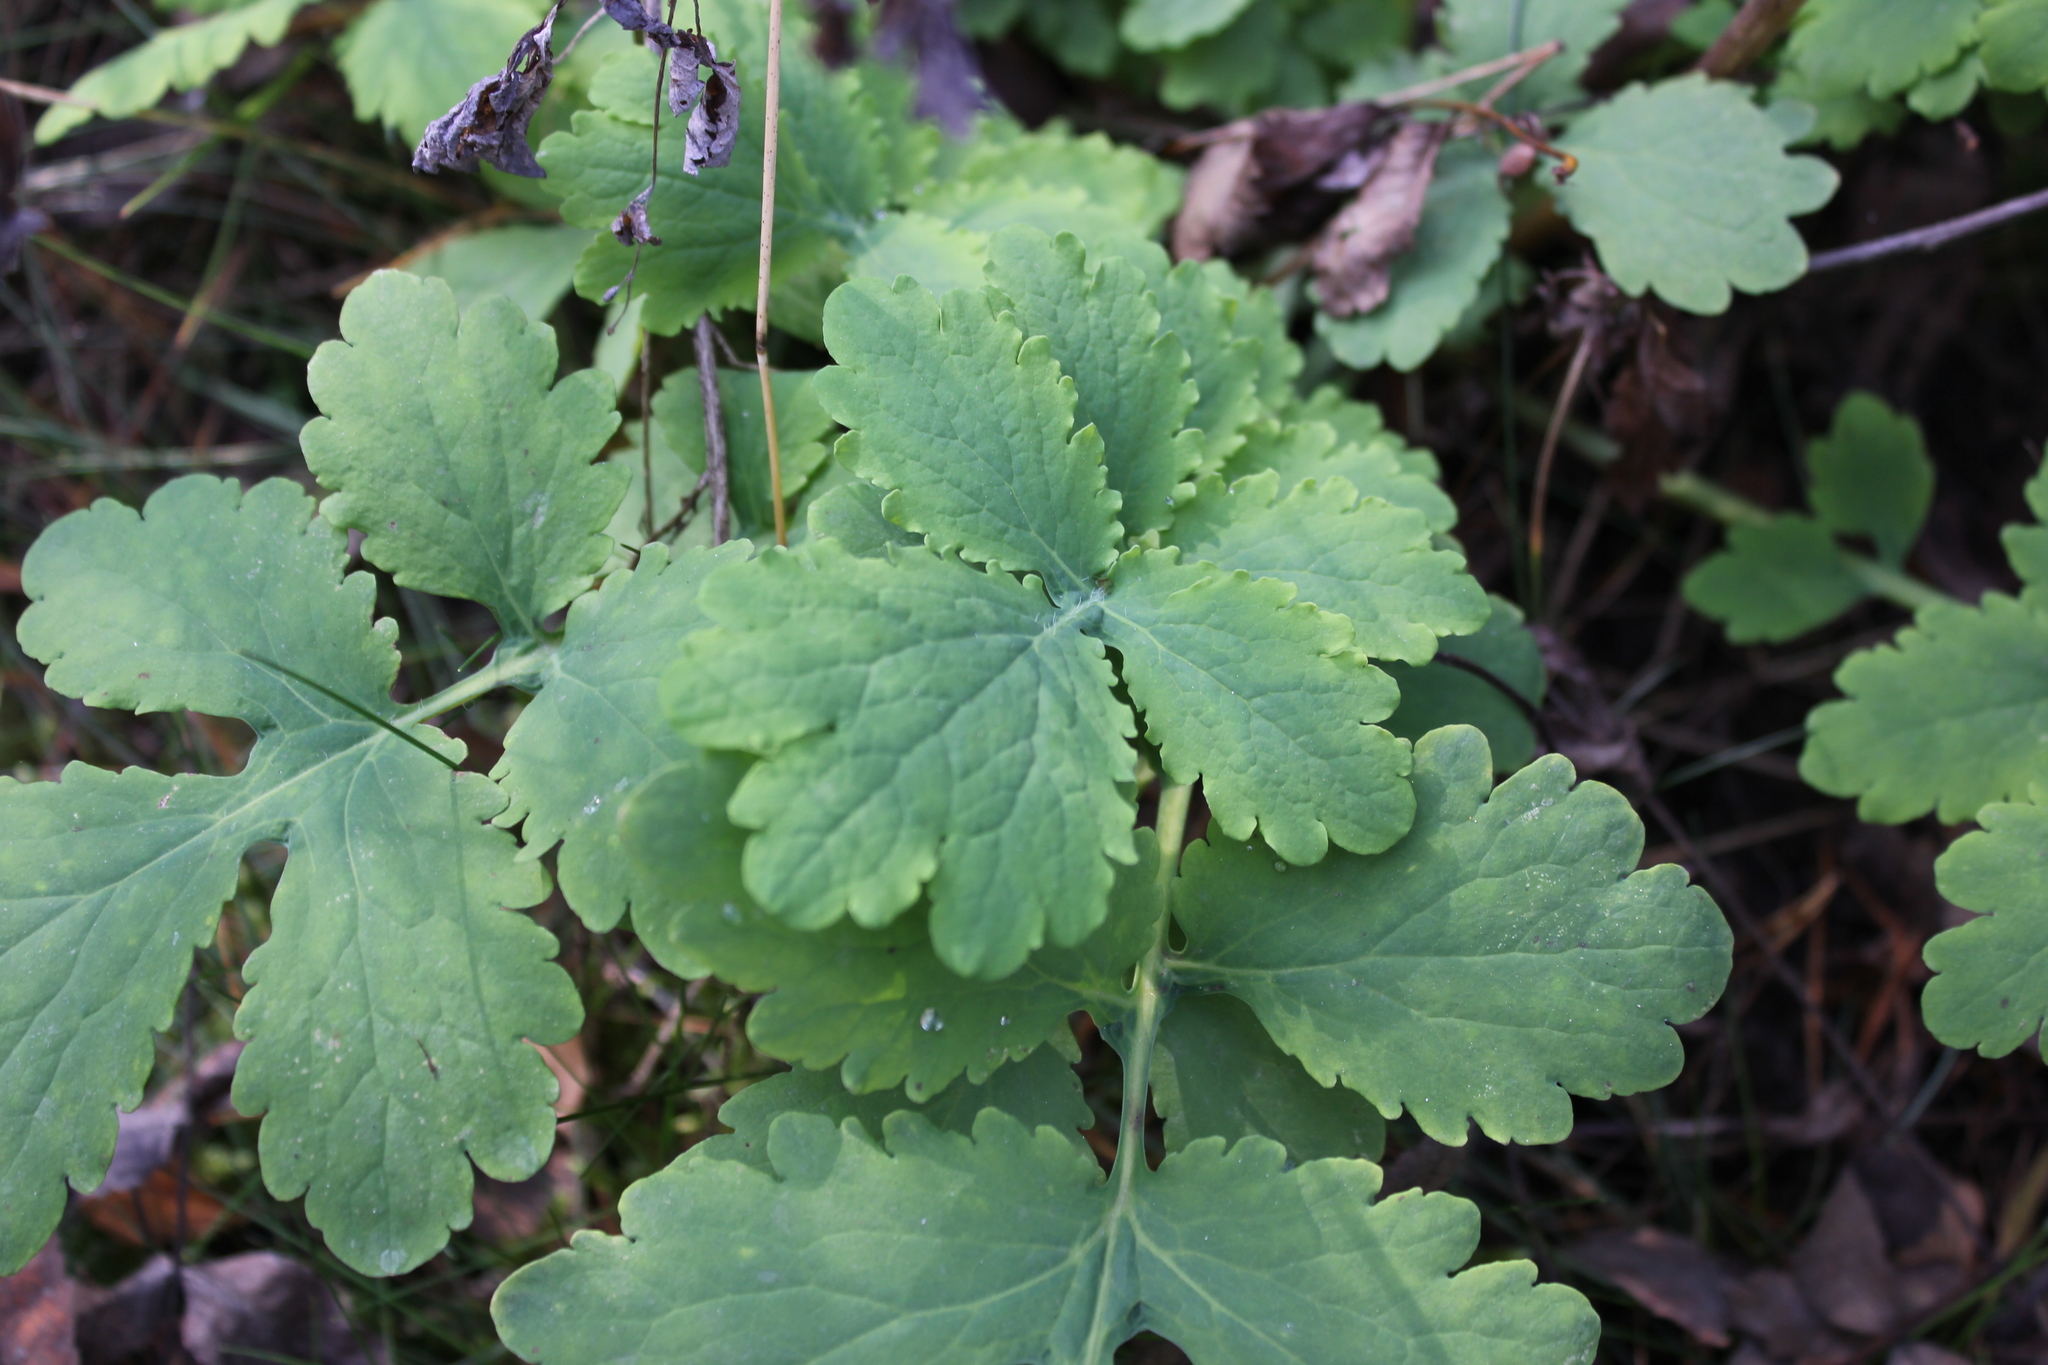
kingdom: Plantae
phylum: Tracheophyta
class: Magnoliopsida
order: Ranunculales
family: Papaveraceae
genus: Chelidonium
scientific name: Chelidonium majus
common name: Greater celandine
